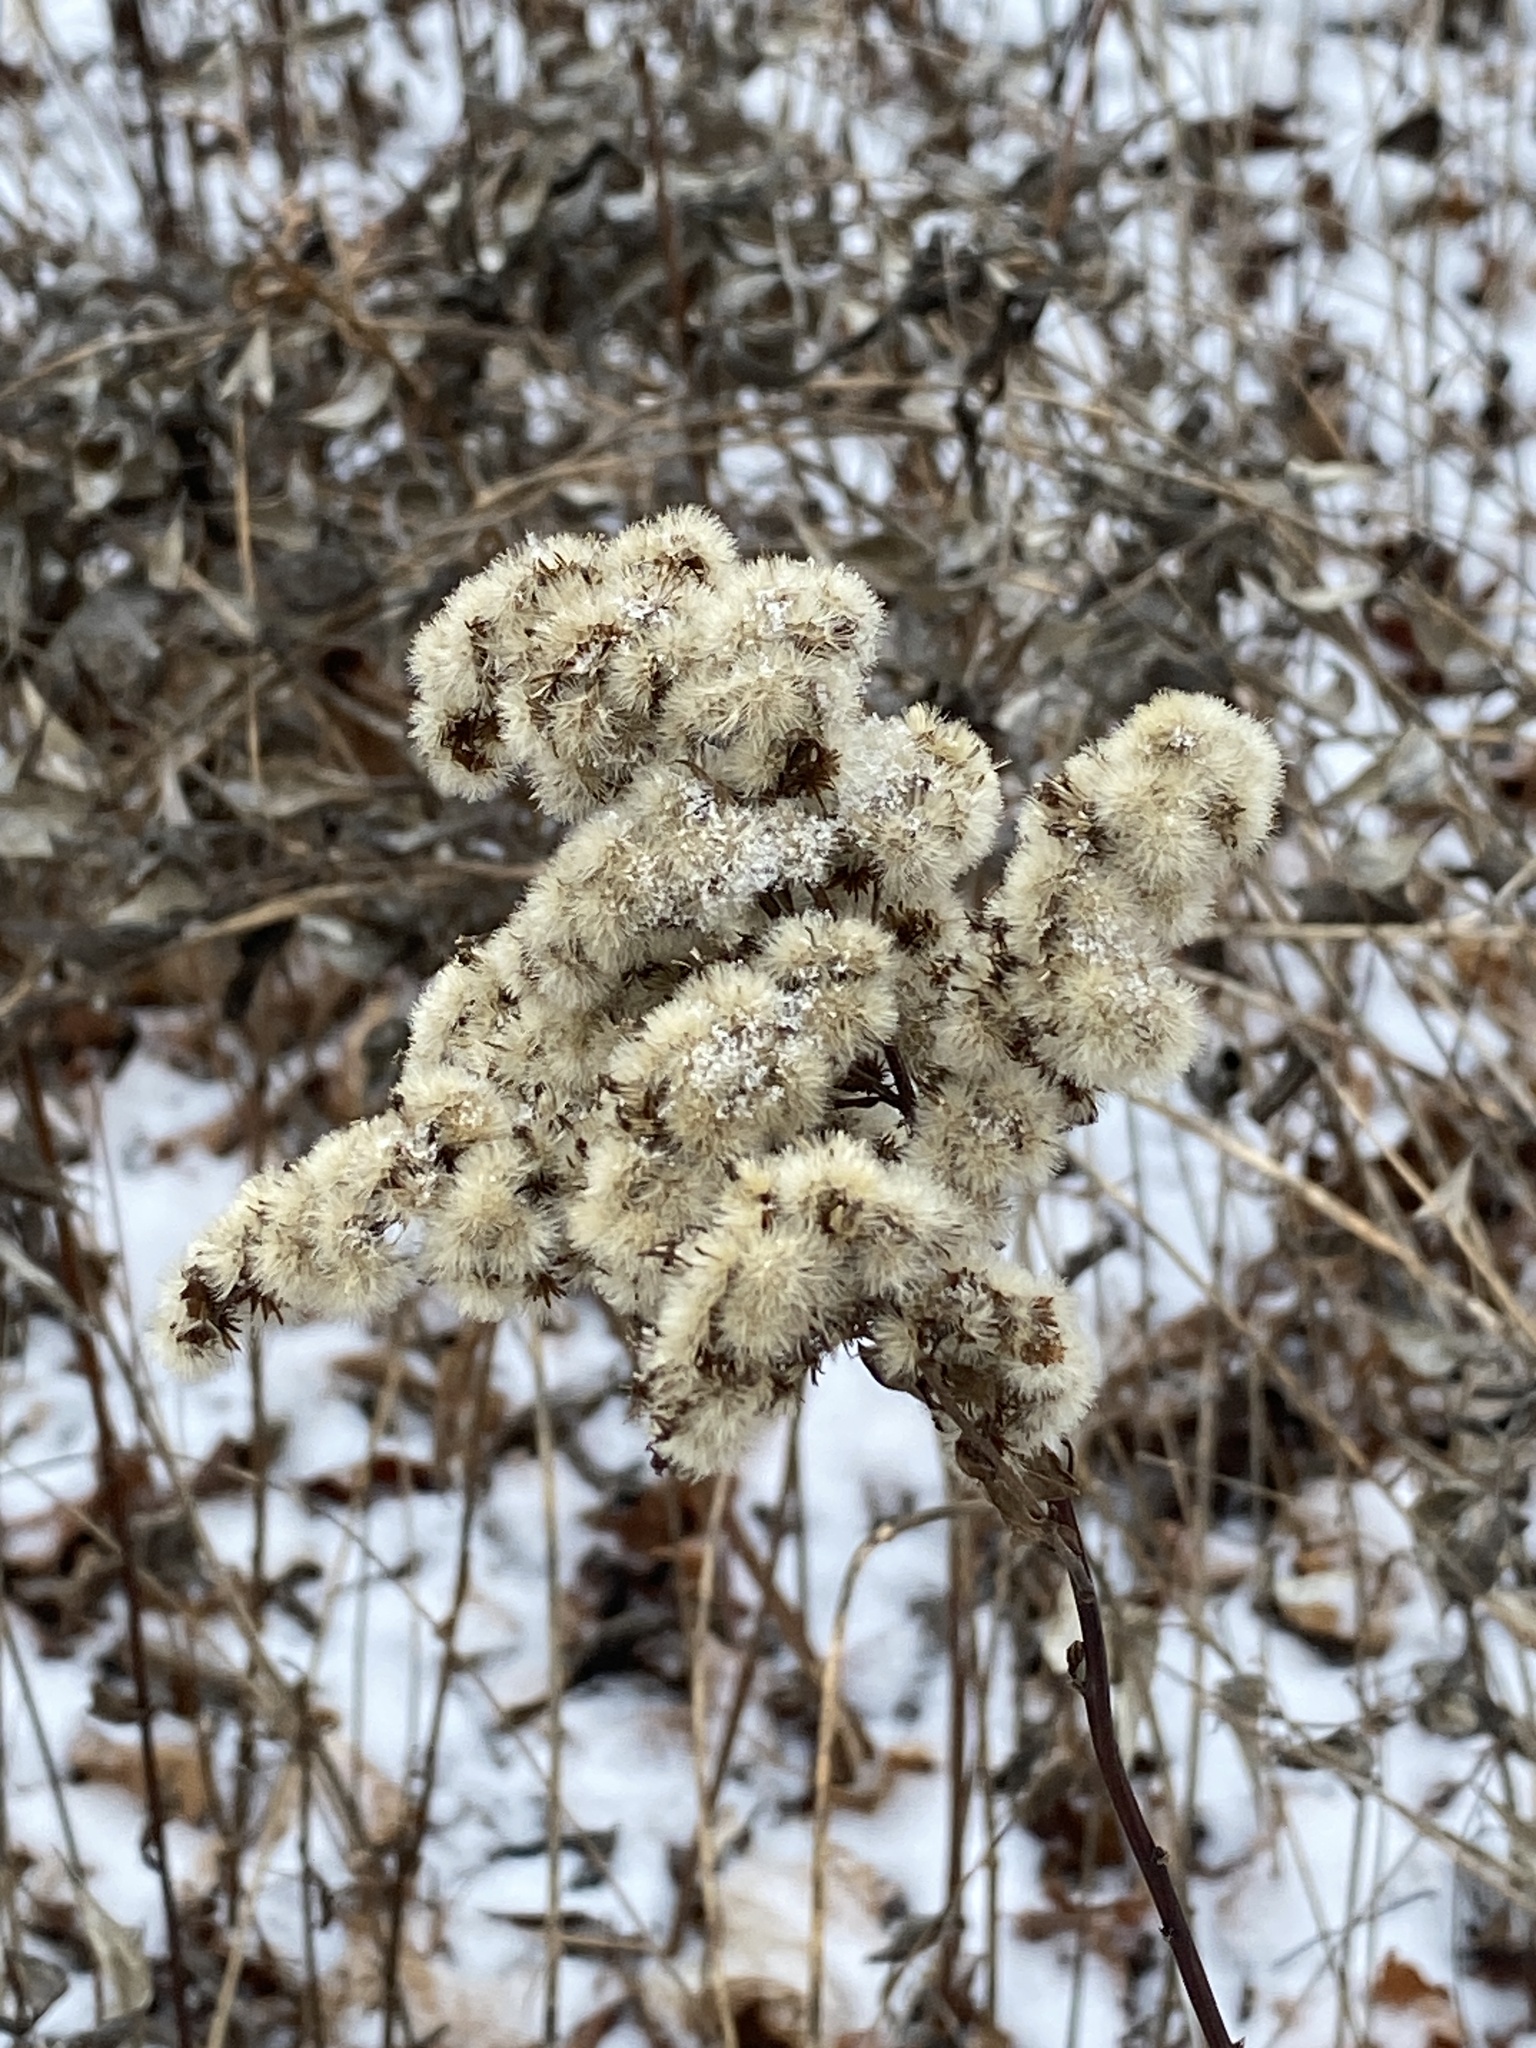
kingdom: Plantae
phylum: Tracheophyta
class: Magnoliopsida
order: Asterales
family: Asteraceae
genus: Solidago
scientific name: Solidago
